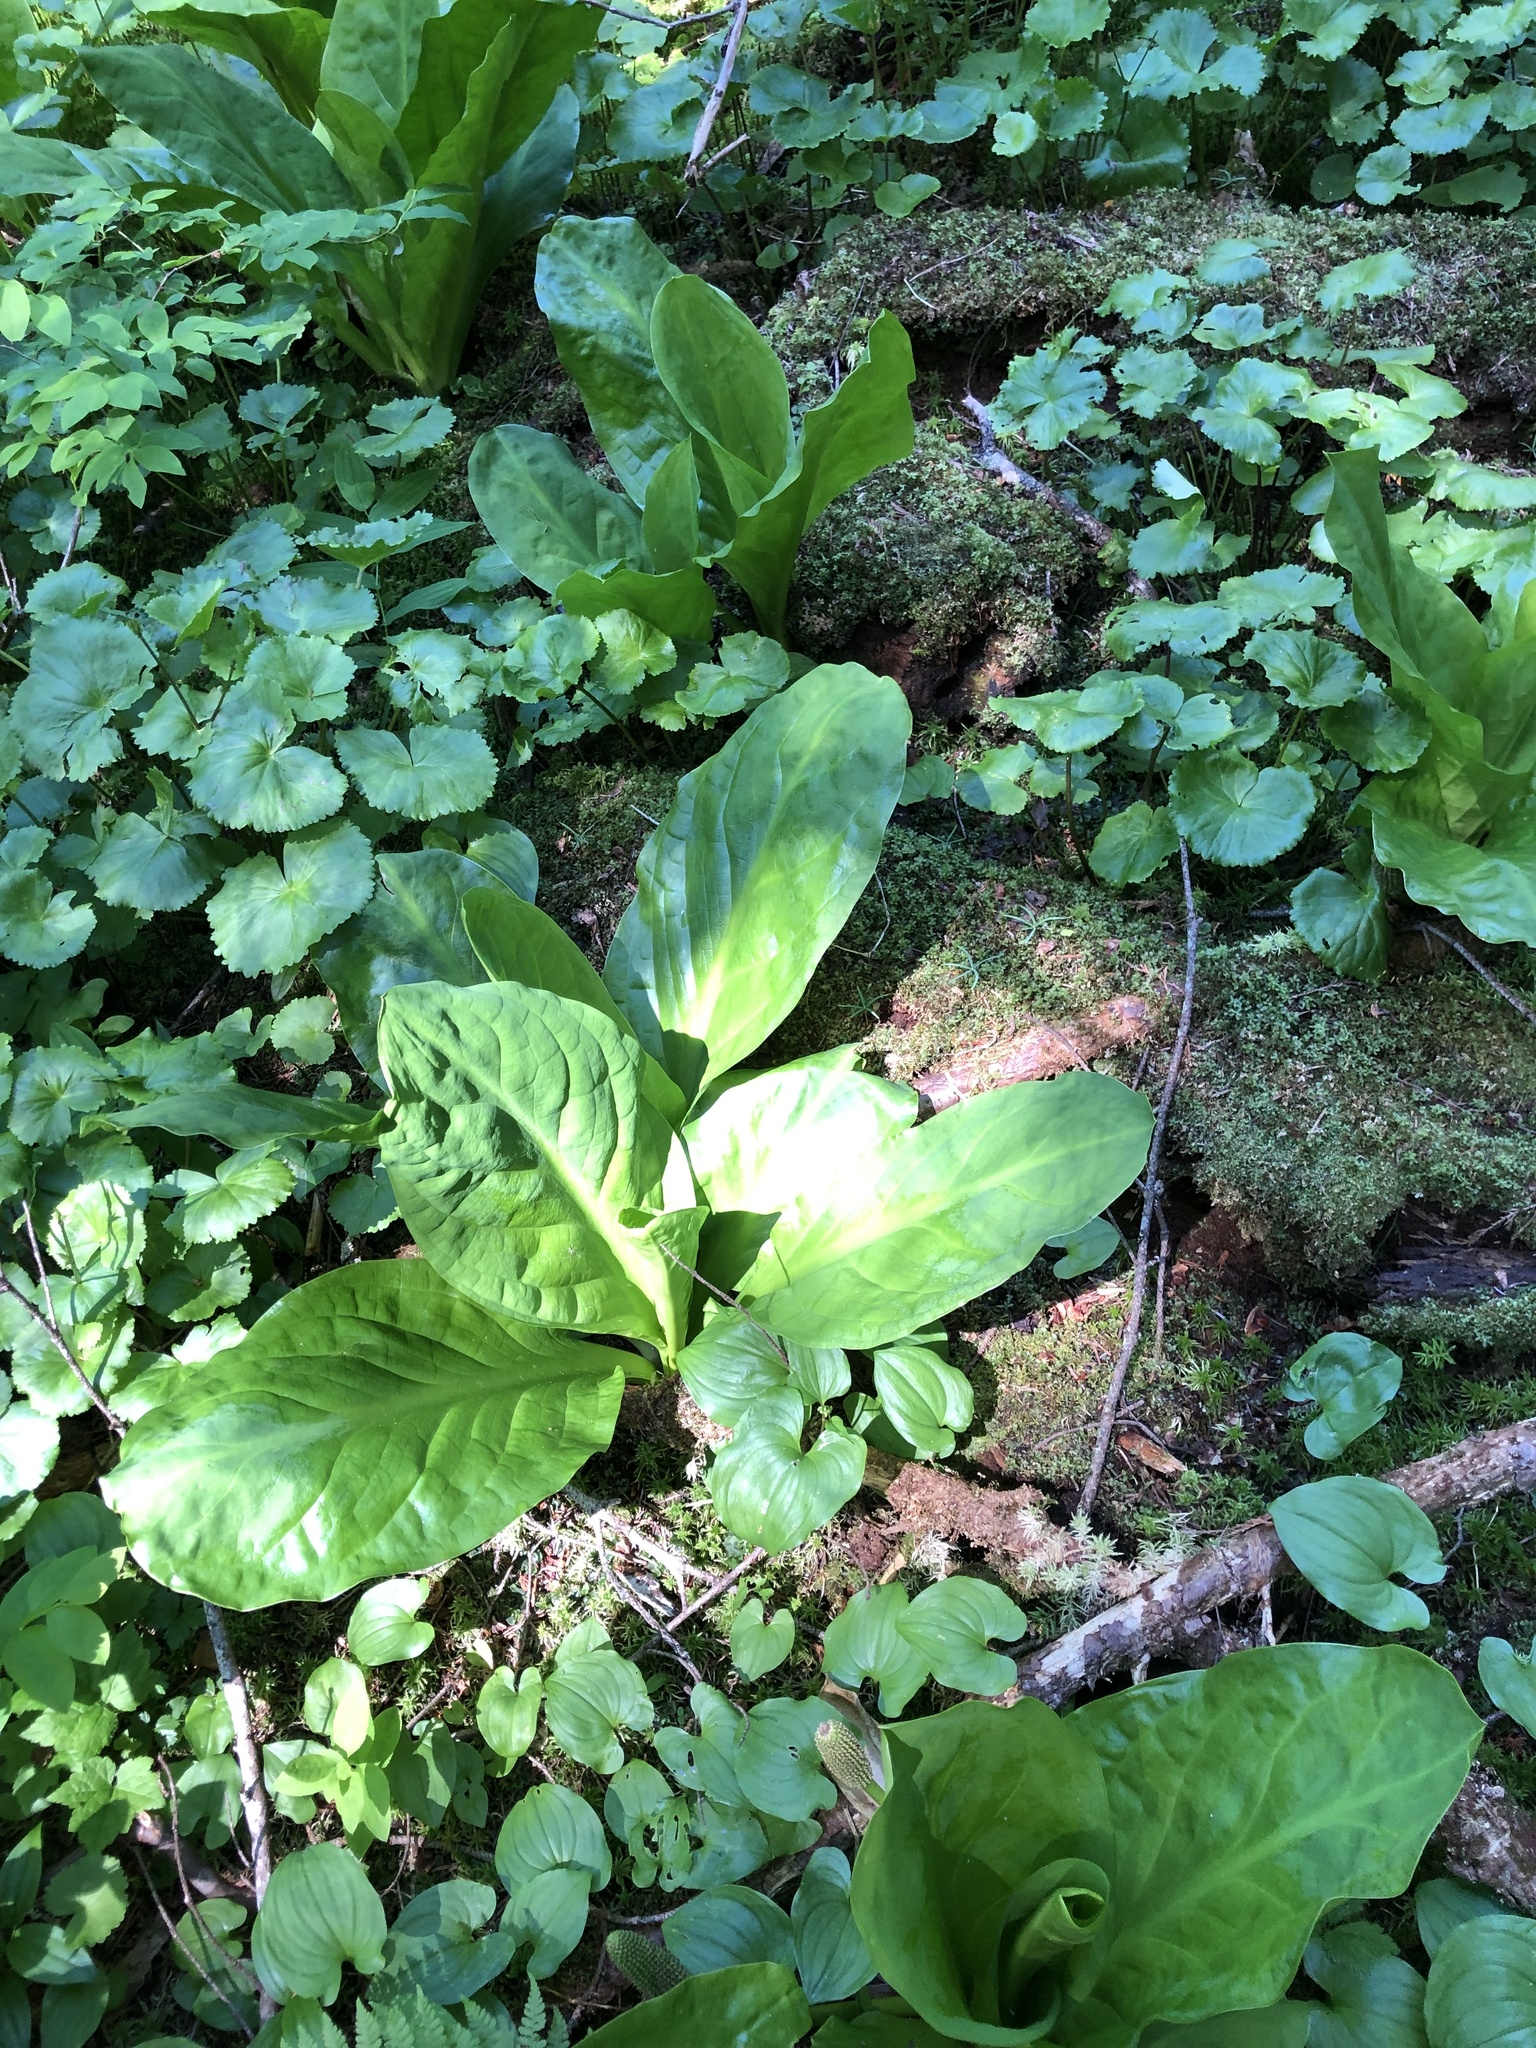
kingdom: Plantae
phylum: Tracheophyta
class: Liliopsida
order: Alismatales
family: Araceae
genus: Lysichiton
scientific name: Lysichiton americanus
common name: American skunk cabbage
